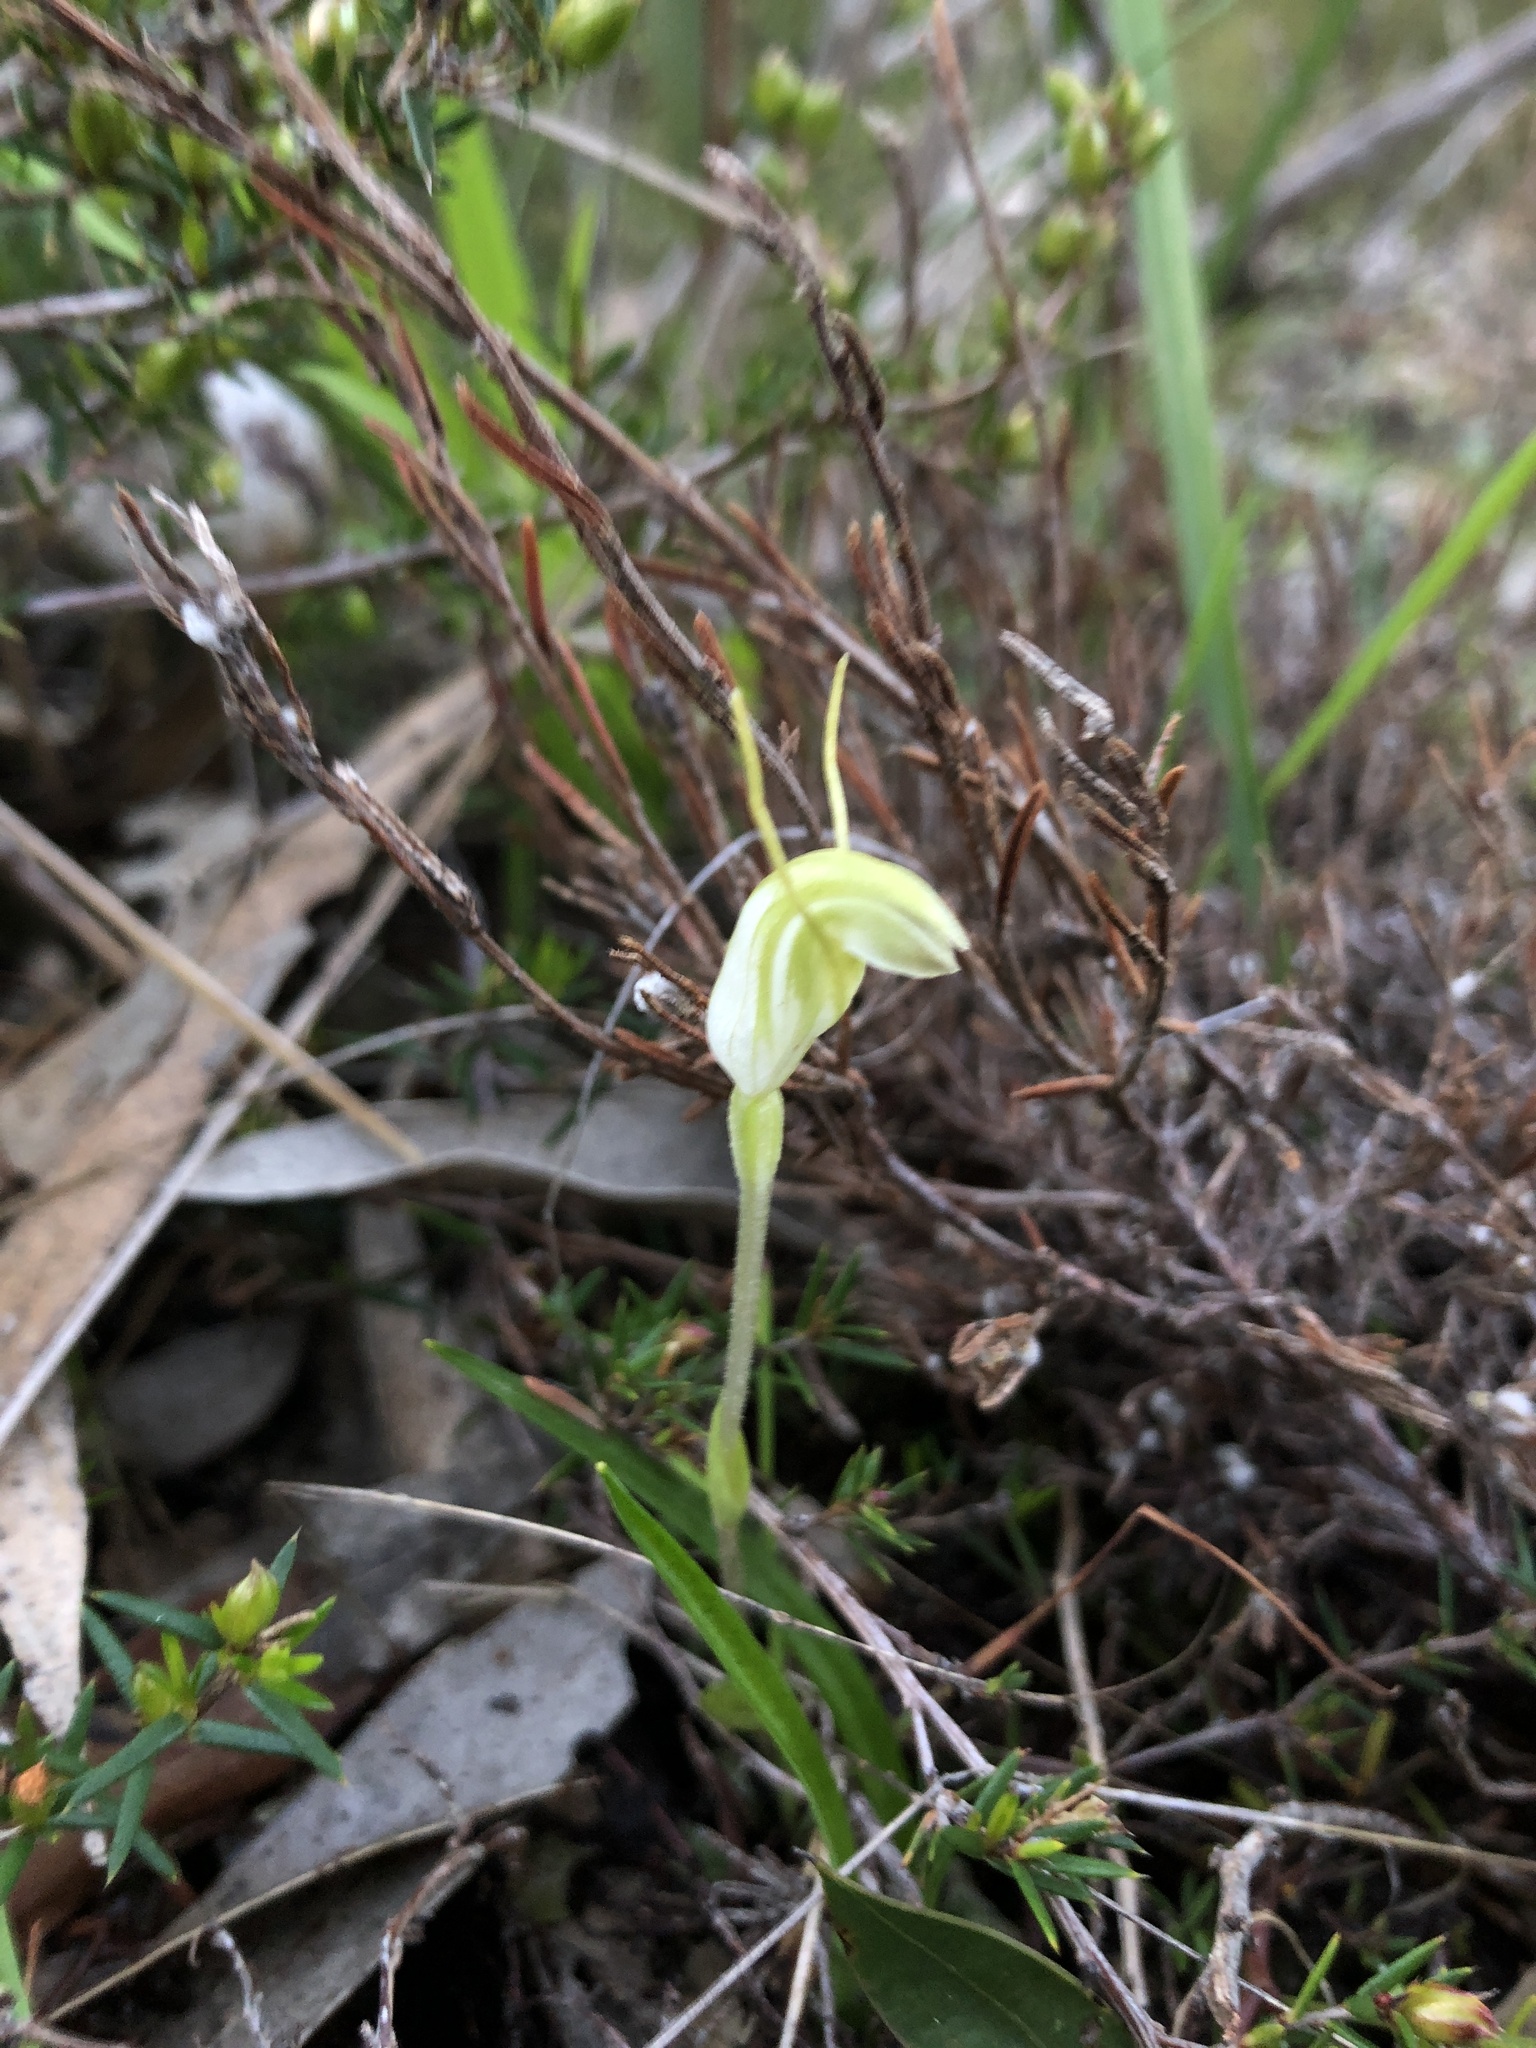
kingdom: Plantae
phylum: Tracheophyta
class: Liliopsida
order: Asparagales
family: Orchidaceae
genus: Pterostylis
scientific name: Pterostylis nana
